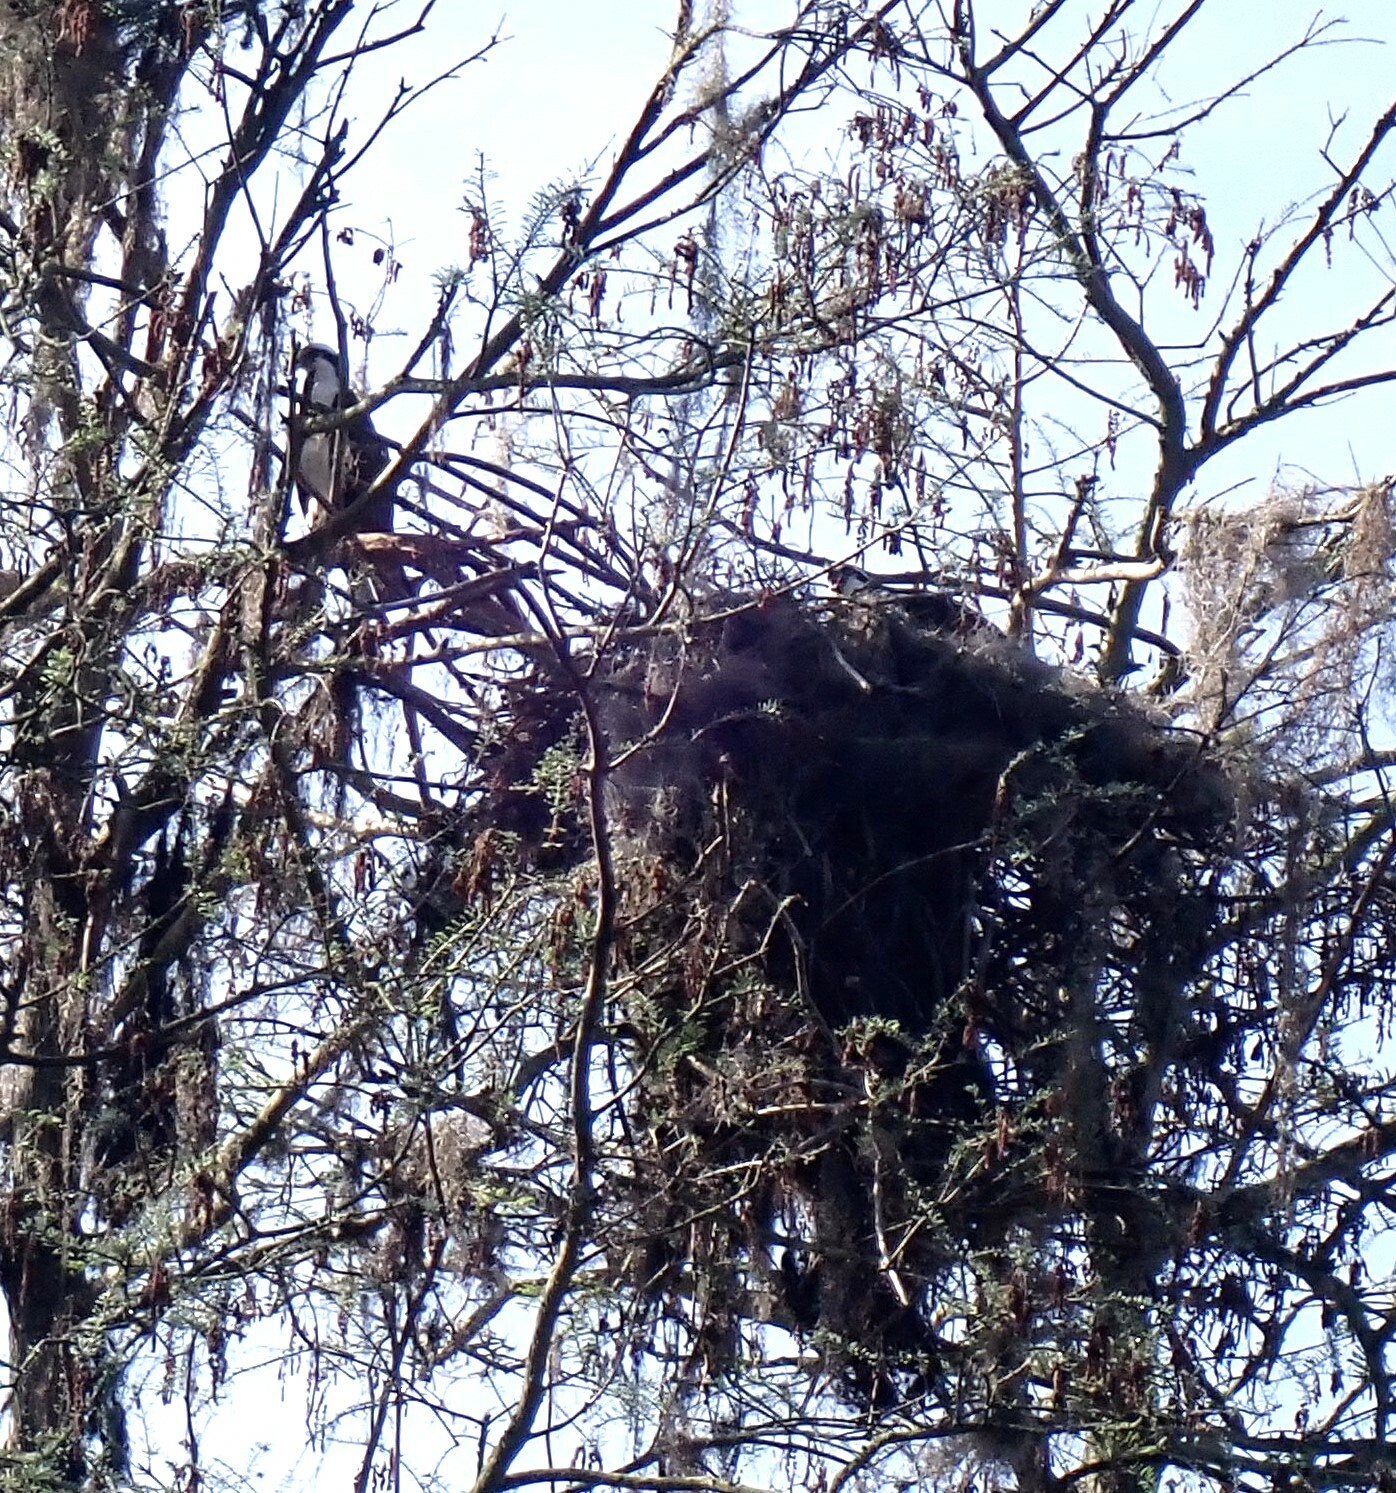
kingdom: Animalia
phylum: Chordata
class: Aves
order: Accipitriformes
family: Pandionidae
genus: Pandion
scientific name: Pandion haliaetus
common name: Osprey
